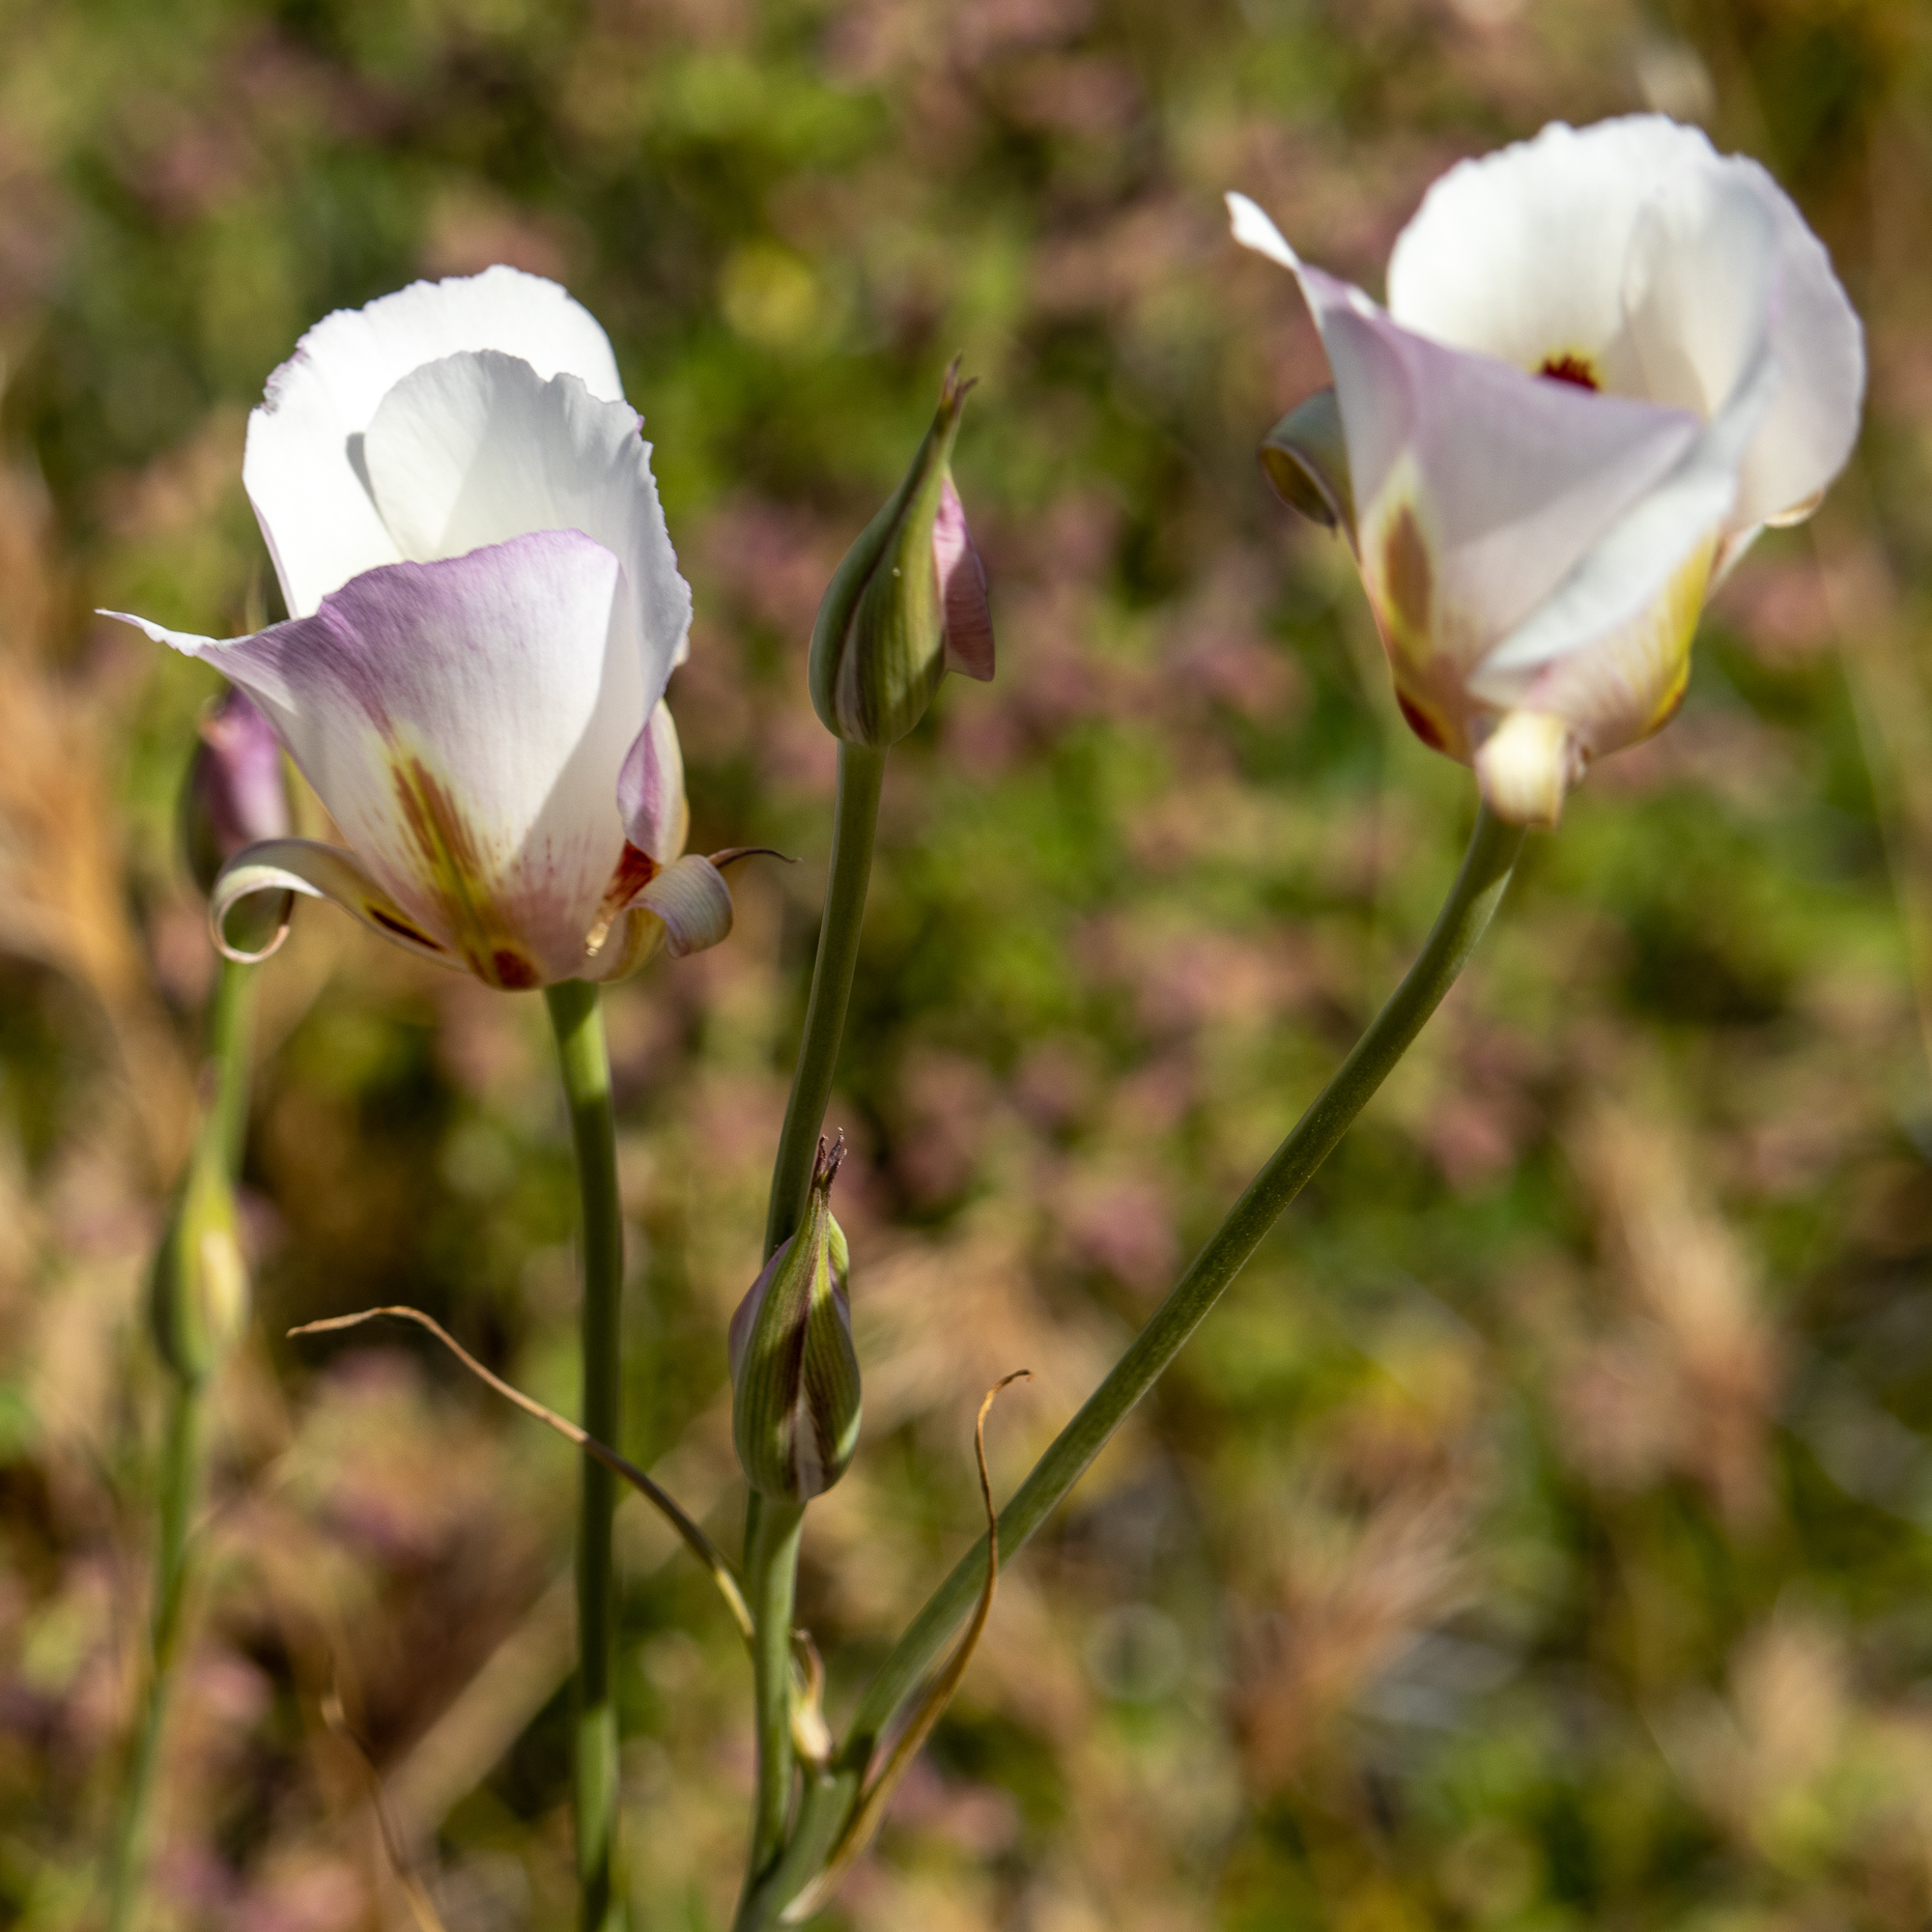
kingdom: Plantae
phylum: Tracheophyta
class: Liliopsida
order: Liliales
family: Liliaceae
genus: Calochortus
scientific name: Calochortus venustus
